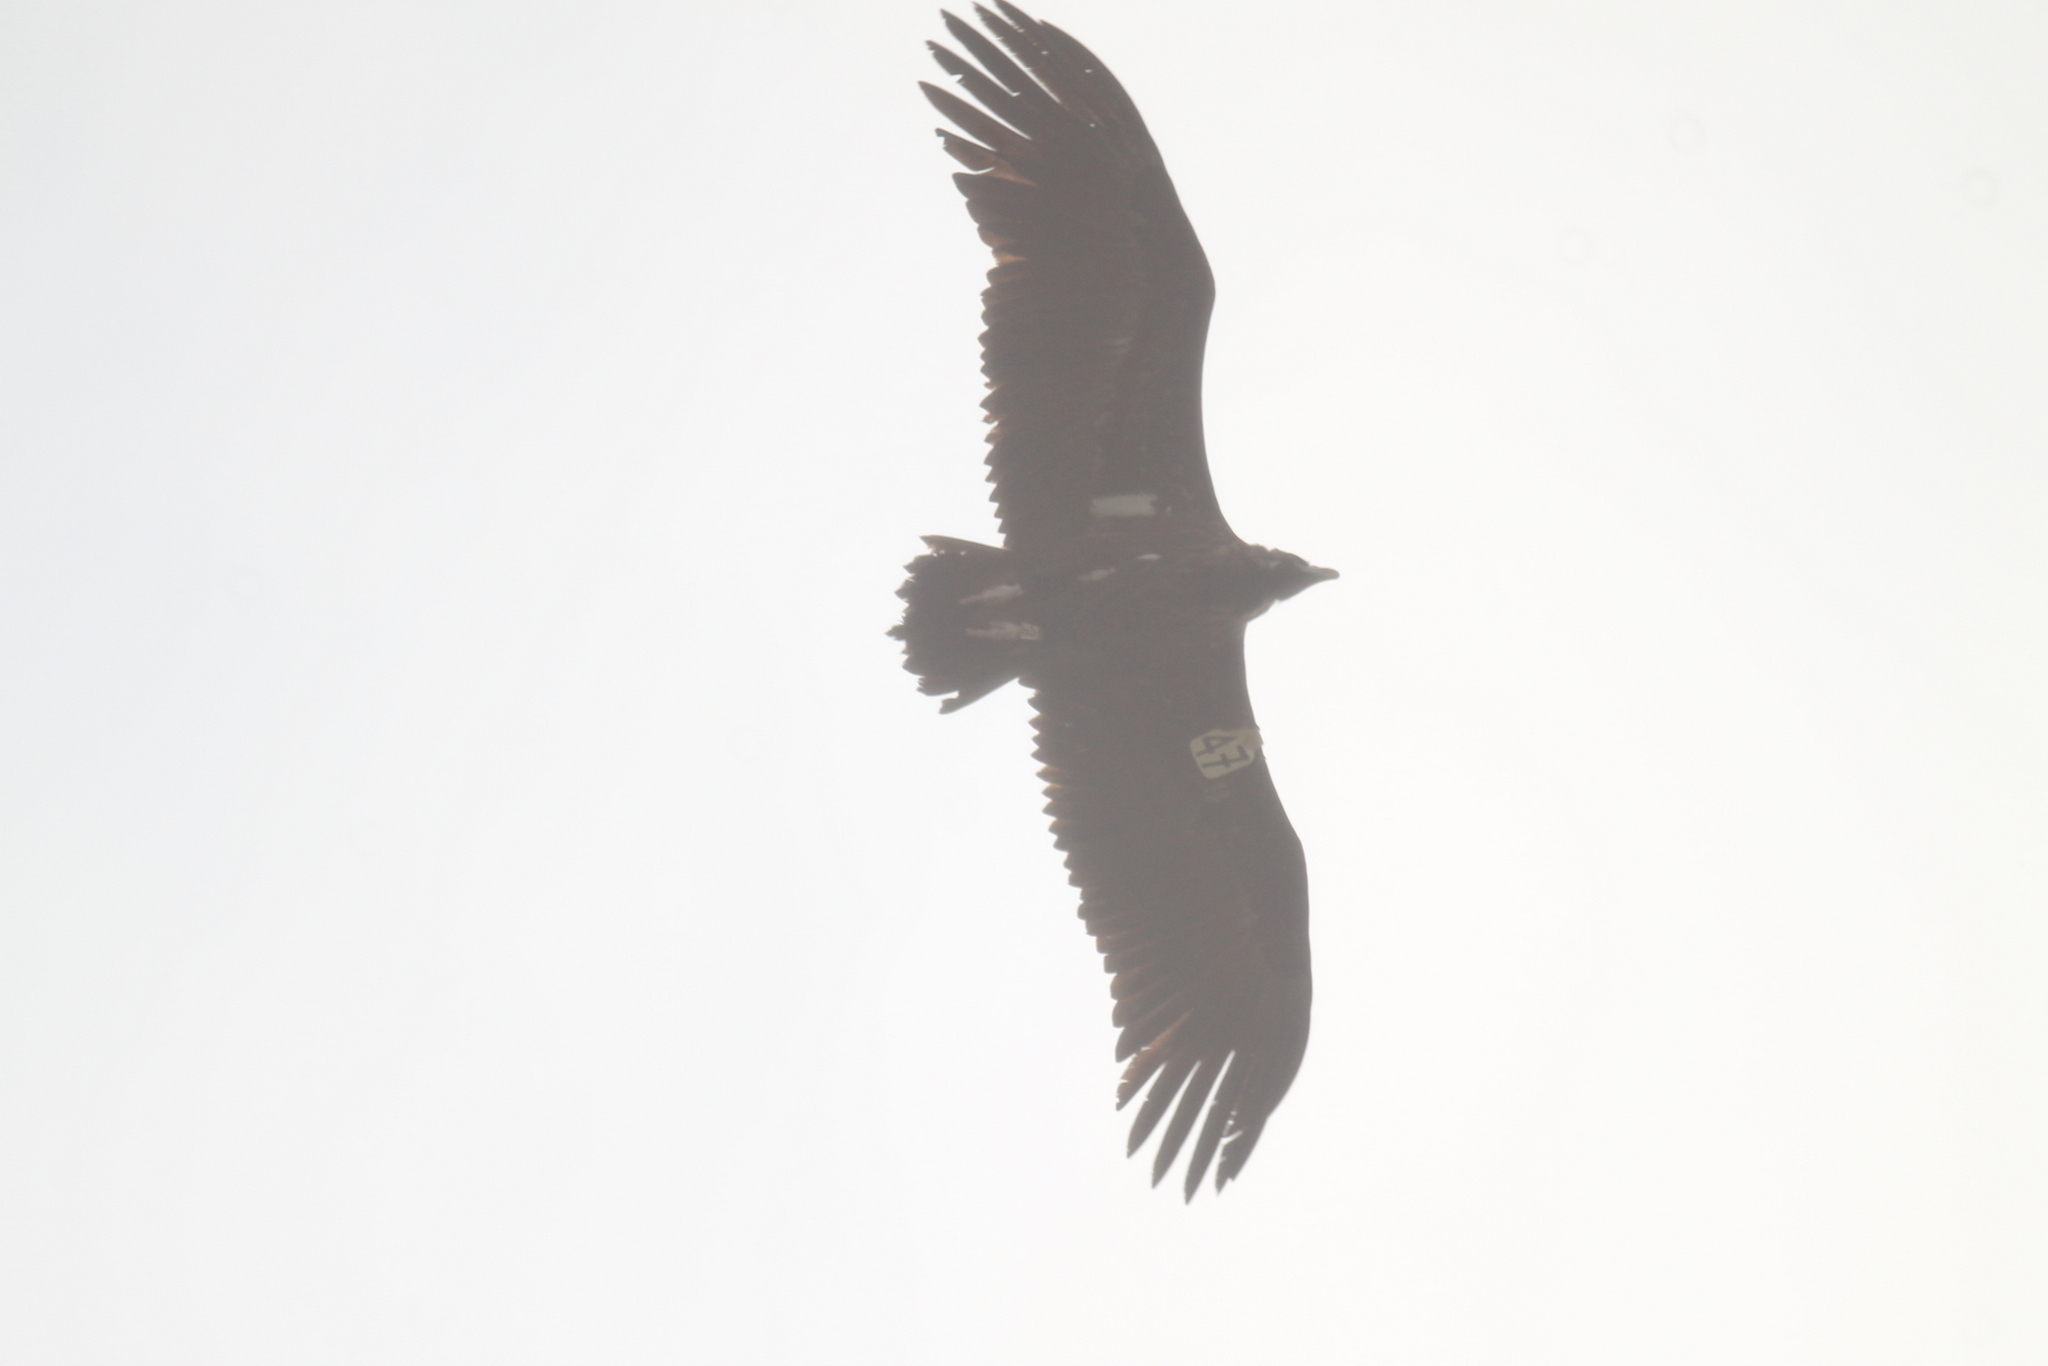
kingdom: Animalia
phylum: Chordata
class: Aves
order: Accipitriformes
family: Accipitridae
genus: Aegypius
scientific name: Aegypius monachus
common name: Cinereous vulture
